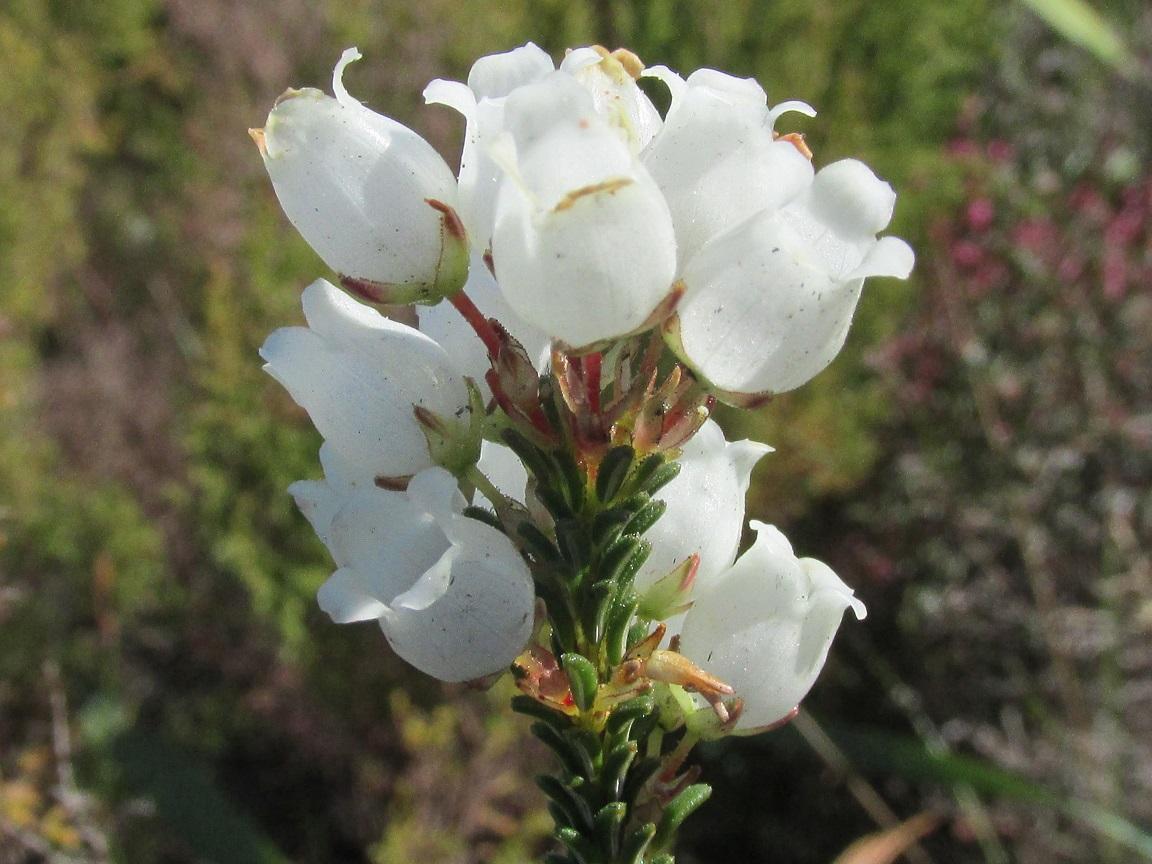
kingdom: Plantae
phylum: Tracheophyta
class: Magnoliopsida
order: Ericales
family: Ericaceae
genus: Erica
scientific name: Erica odorata
